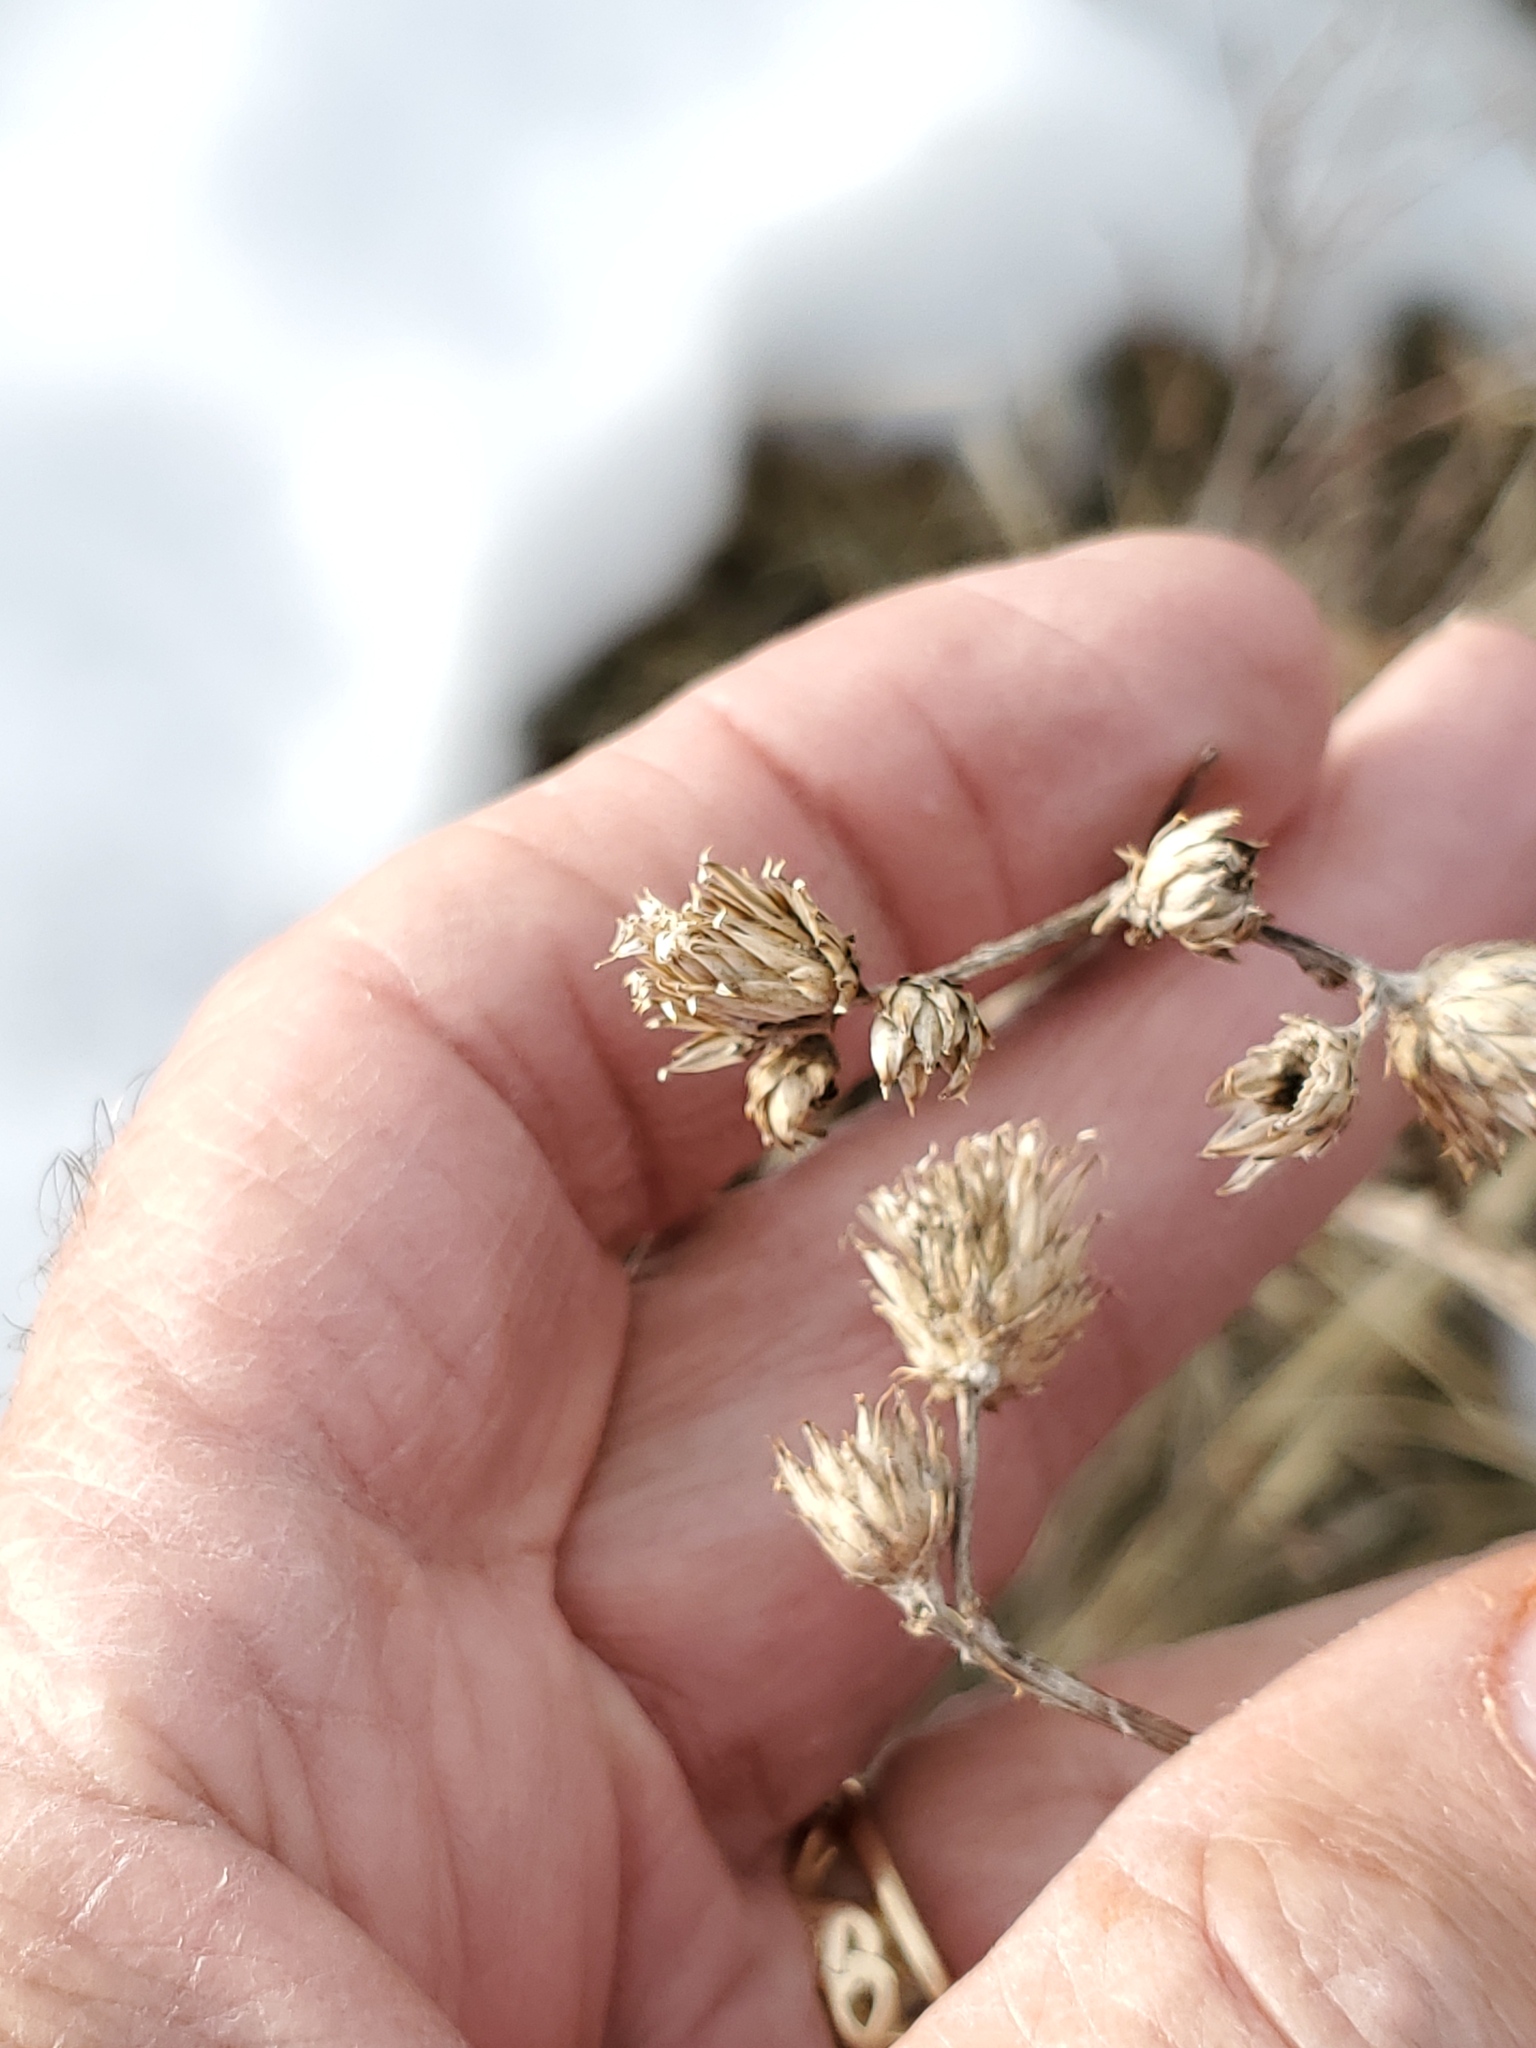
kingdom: Plantae
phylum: Tracheophyta
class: Magnoliopsida
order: Asterales
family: Asteraceae
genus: Cirsium
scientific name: Cirsium arvense
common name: Creeping thistle
